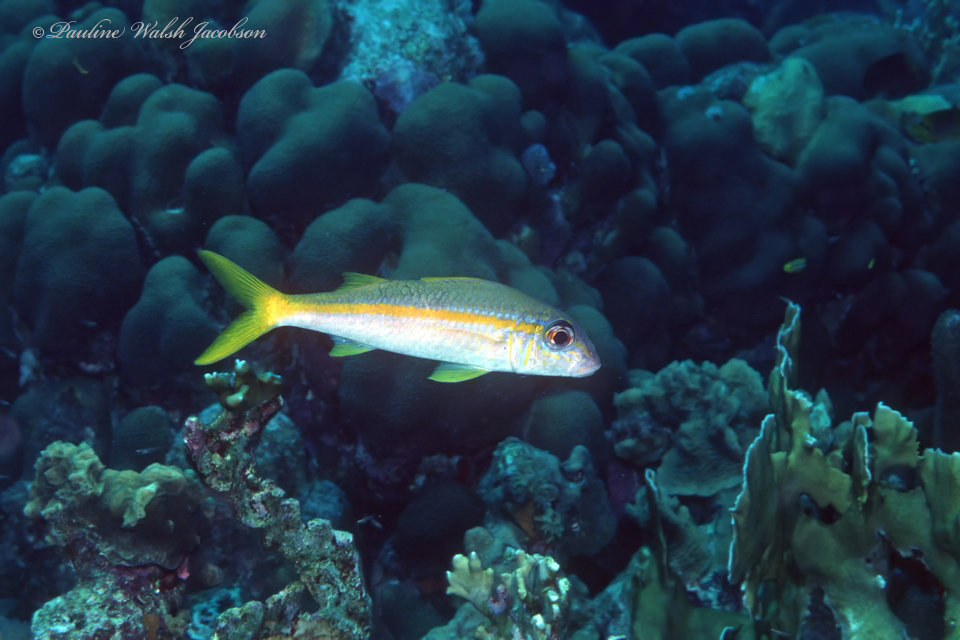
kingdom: Animalia
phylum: Chordata
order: Perciformes
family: Mullidae
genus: Mulloidichthys
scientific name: Mulloidichthys martinicus
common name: Yellow goatfish
